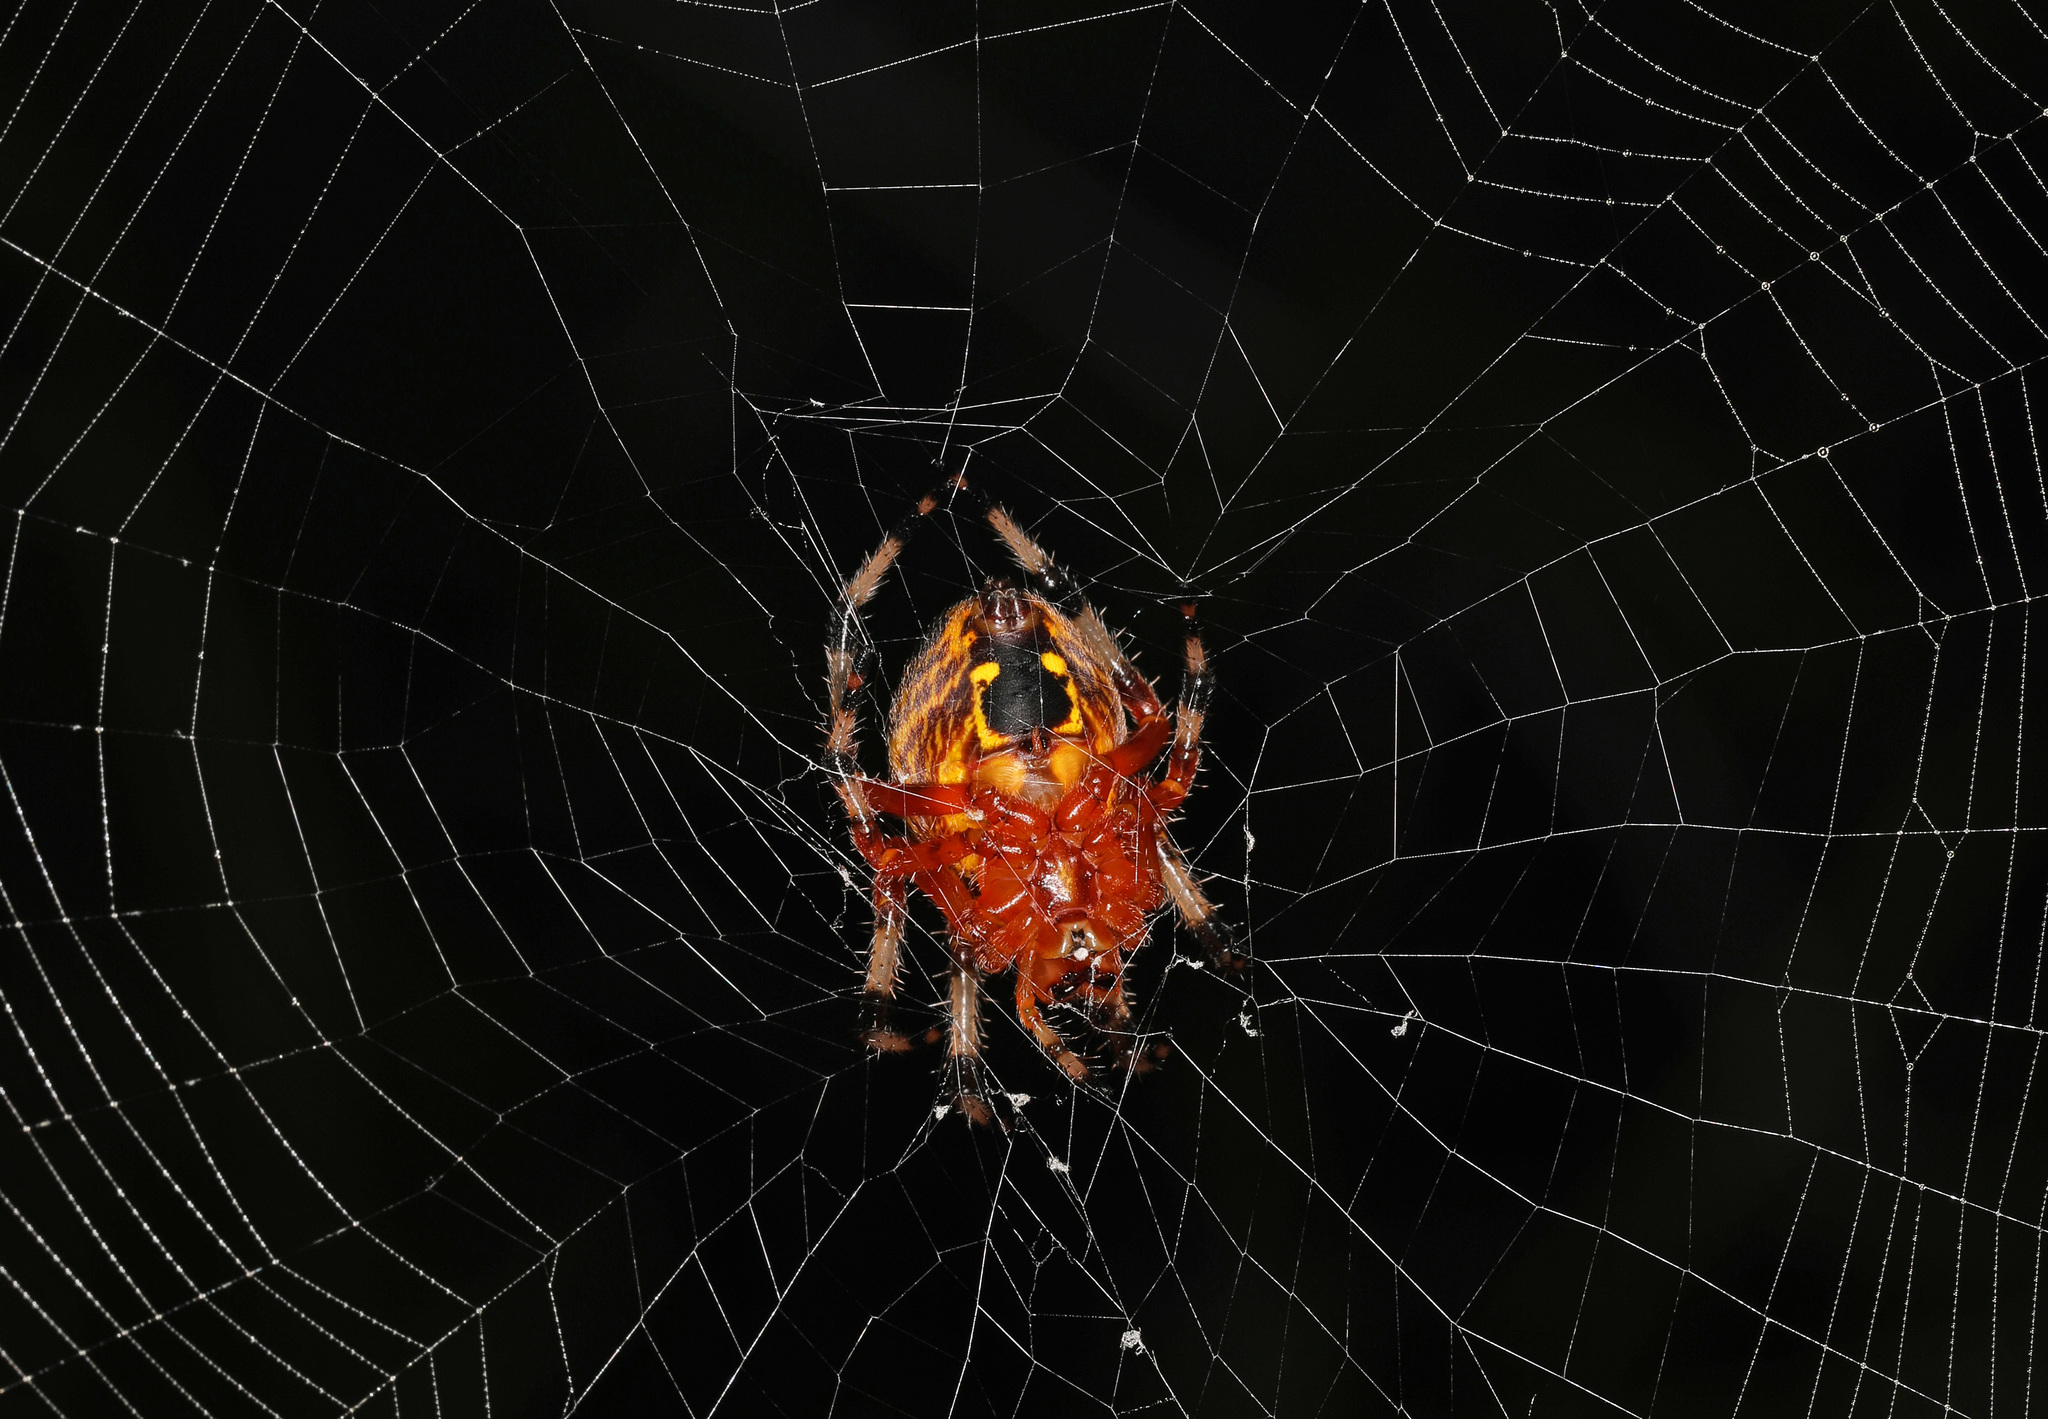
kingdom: Animalia
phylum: Arthropoda
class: Arachnida
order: Araneae
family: Araneidae
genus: Araneus
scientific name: Araneus marmoreus
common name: Marbled orbweaver
